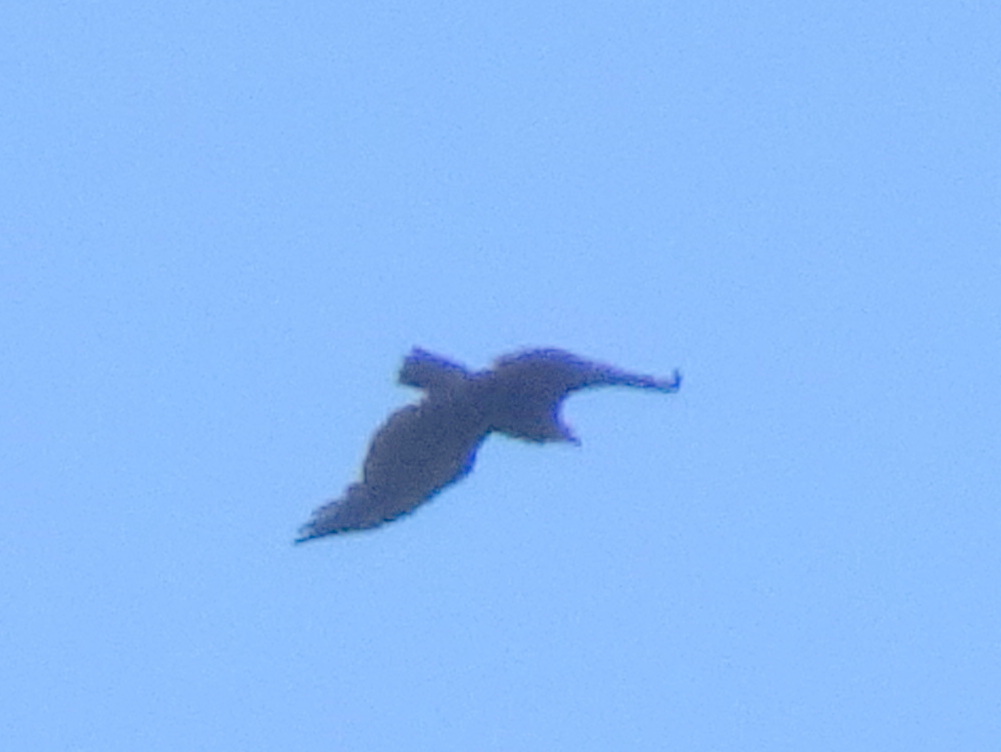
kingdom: Animalia
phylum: Chordata
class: Aves
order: Accipitriformes
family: Accipitridae
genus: Aegypius
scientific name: Aegypius monachus
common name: Cinereous vulture
